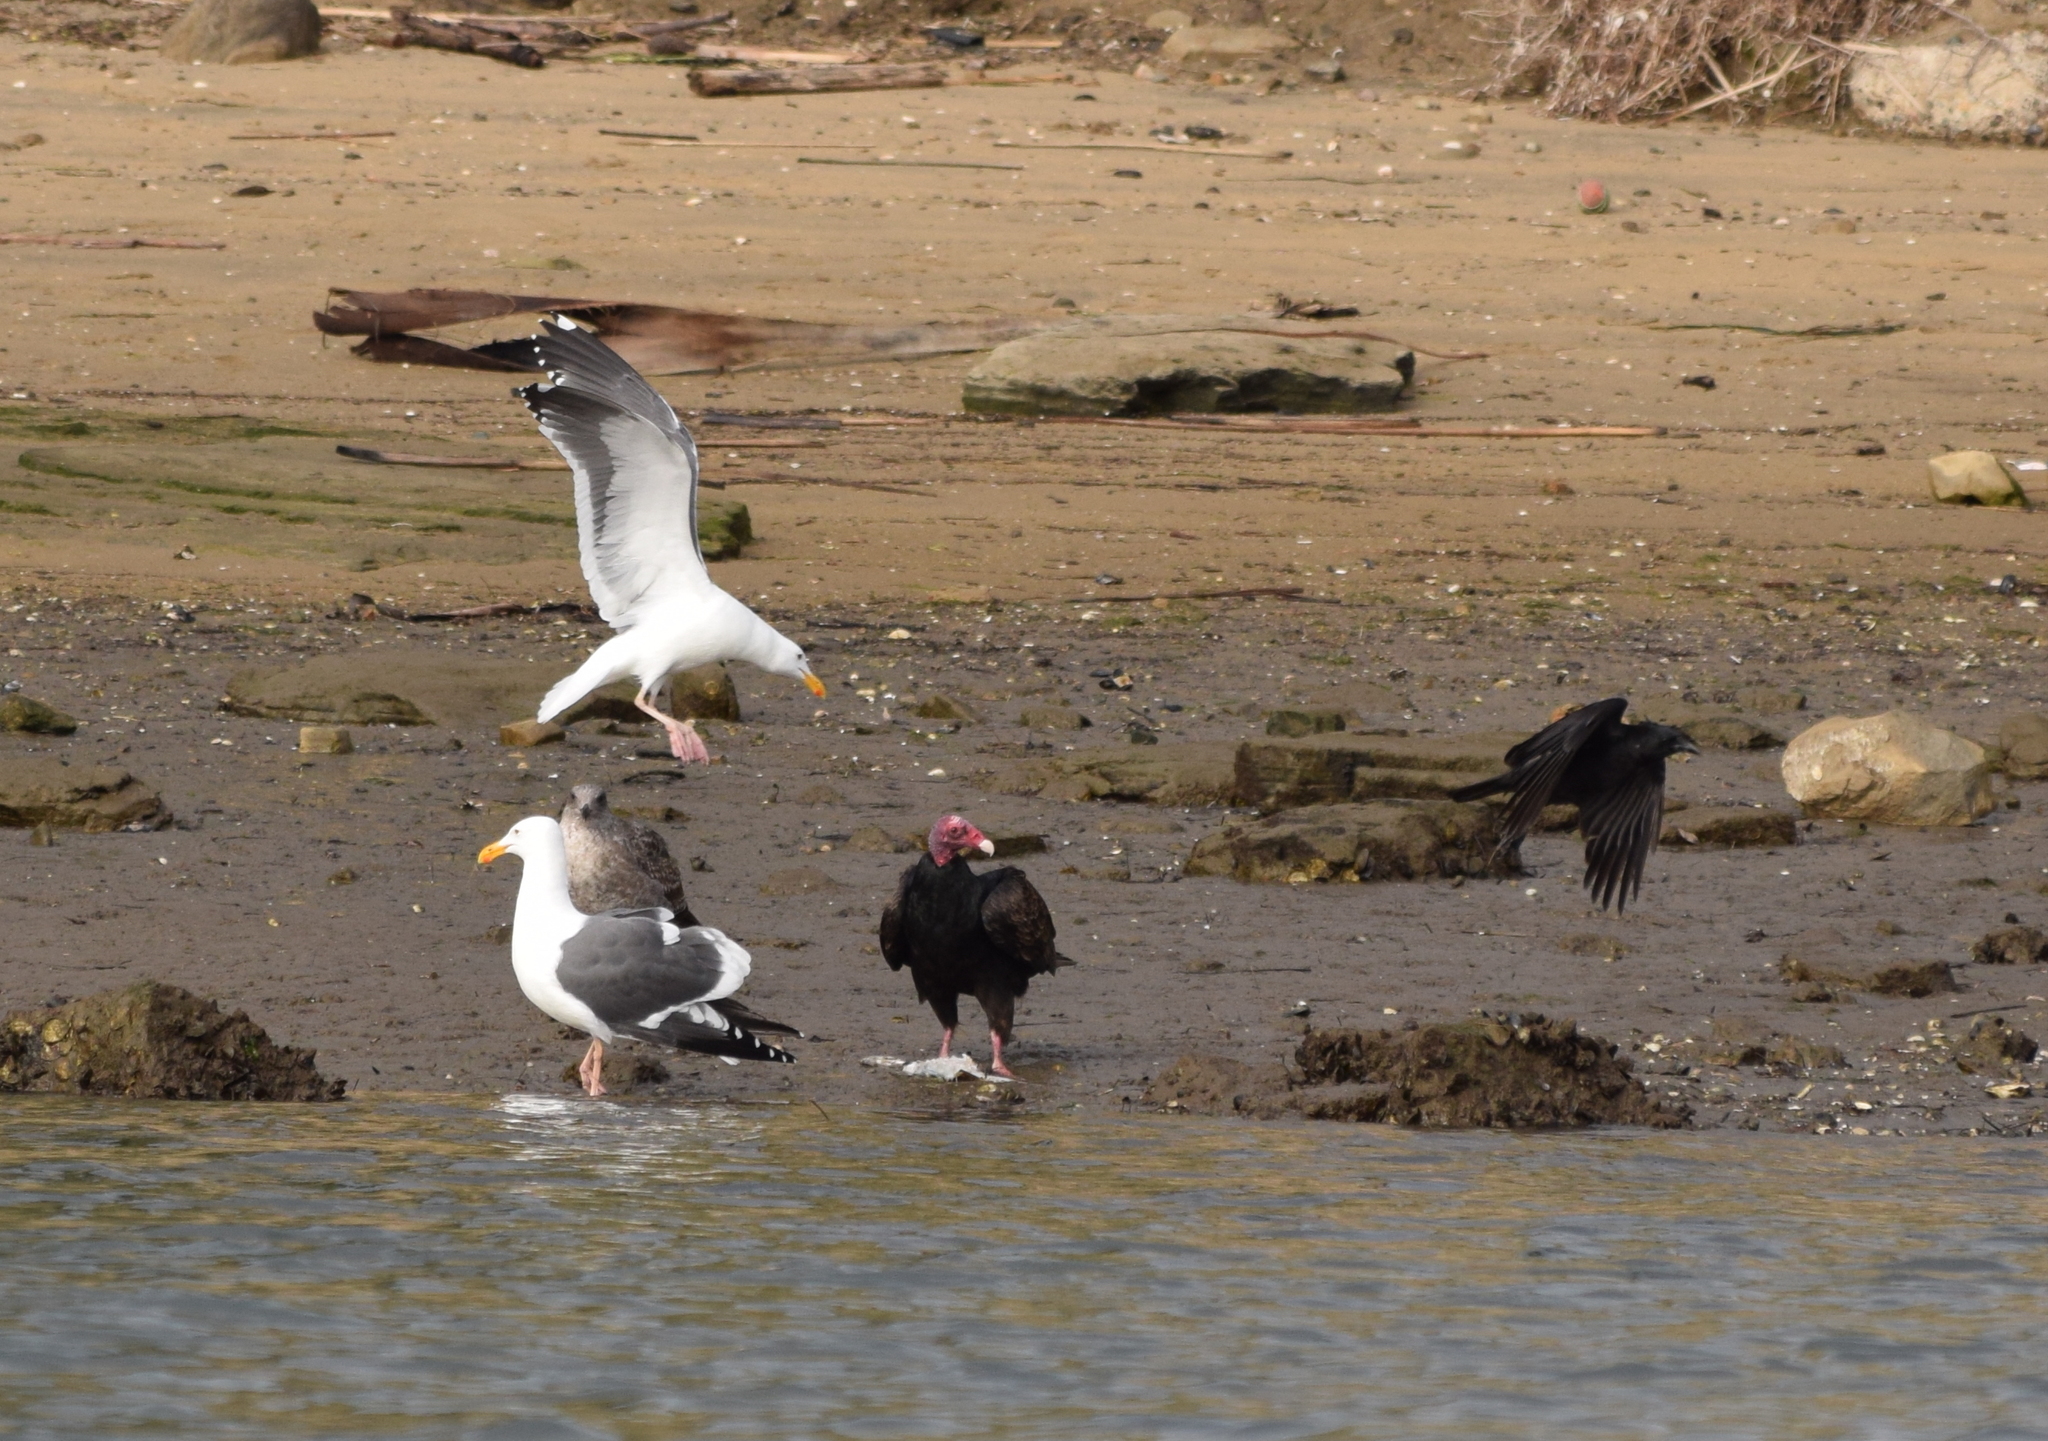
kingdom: Animalia
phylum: Chordata
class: Aves
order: Charadriiformes
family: Laridae
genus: Larus
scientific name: Larus occidentalis
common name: Western gull
